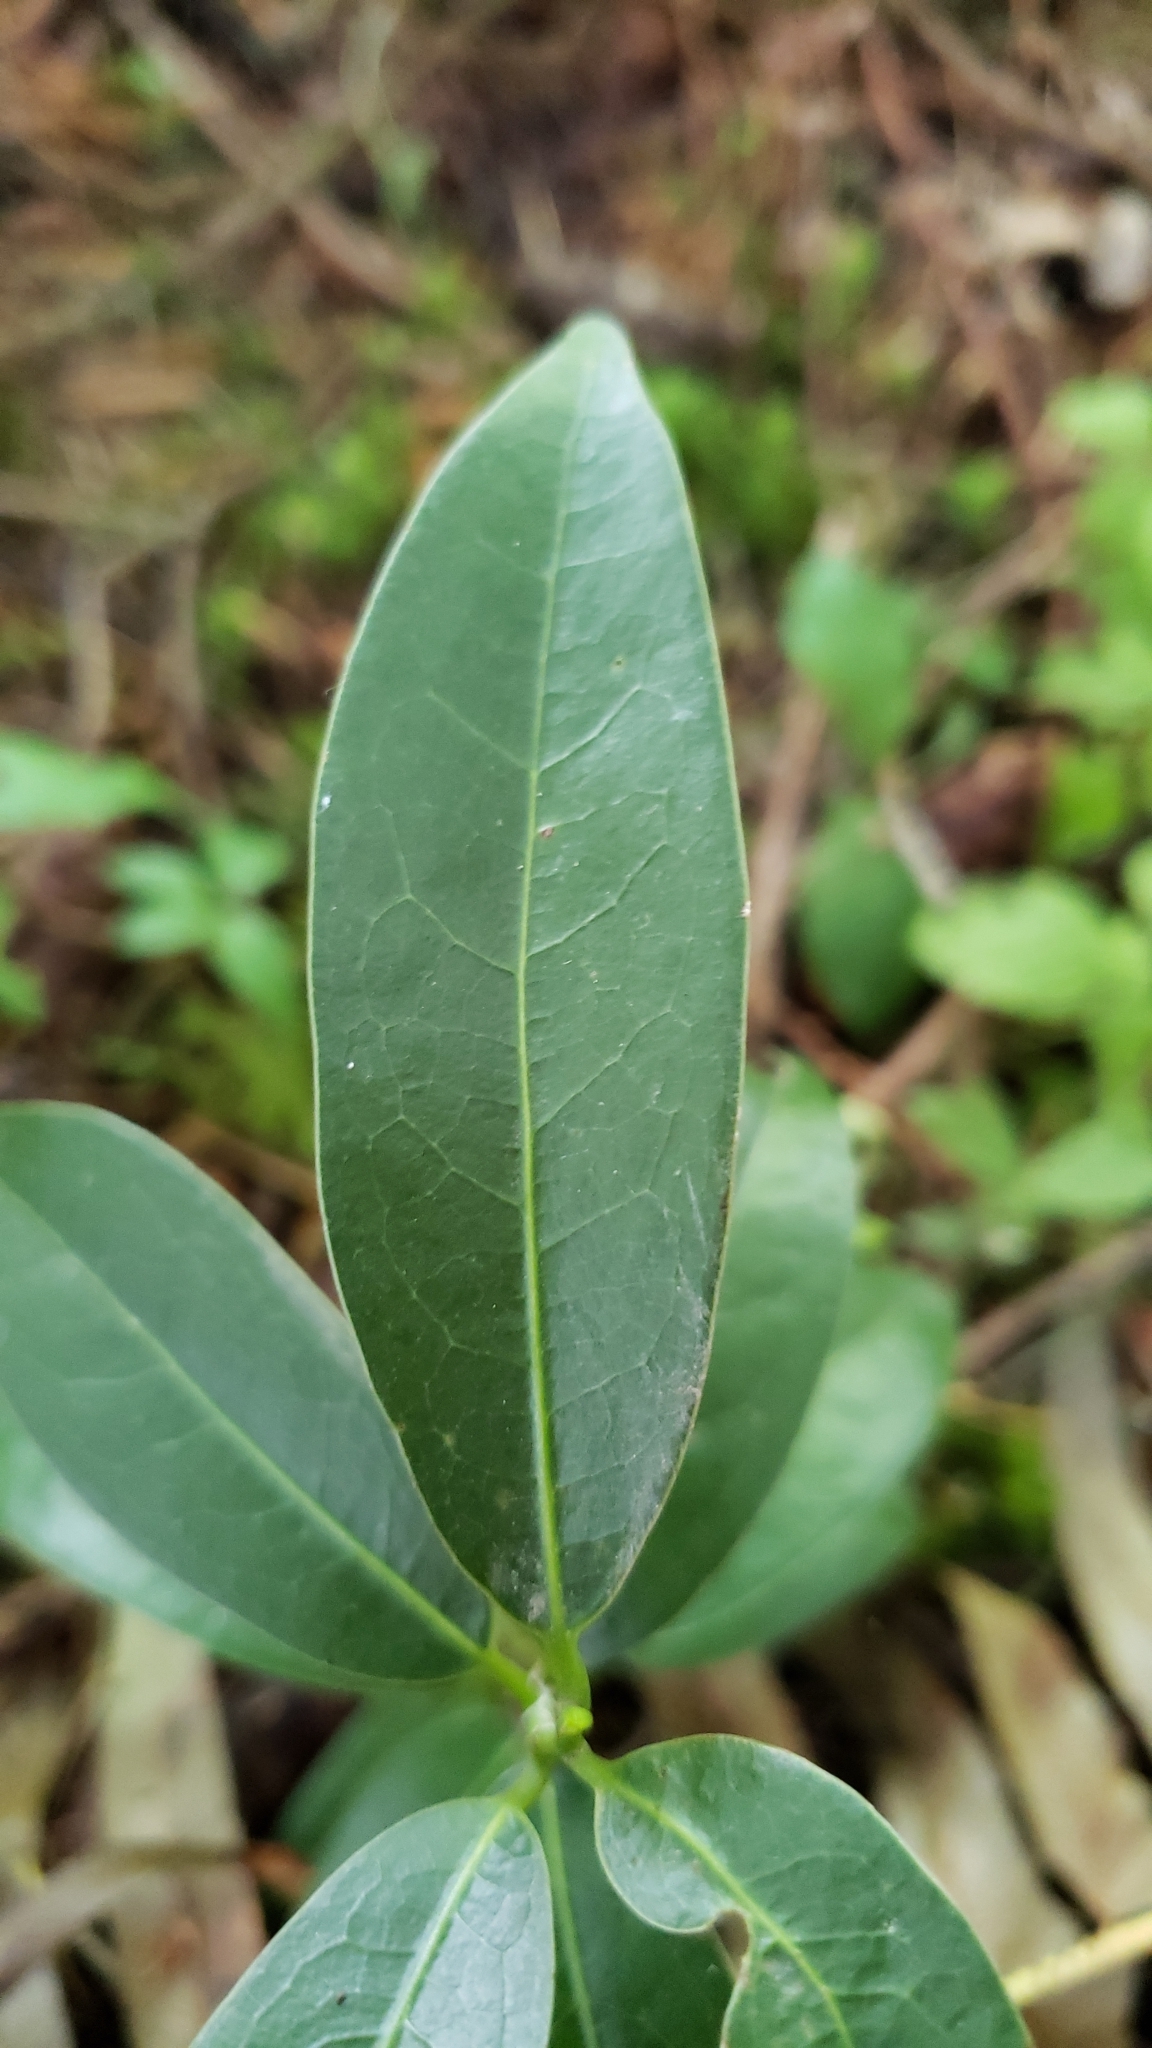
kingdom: Plantae
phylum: Tracheophyta
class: Magnoliopsida
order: Laurales
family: Lauraceae
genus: Umbellularia
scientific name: Umbellularia californica
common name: California bay
